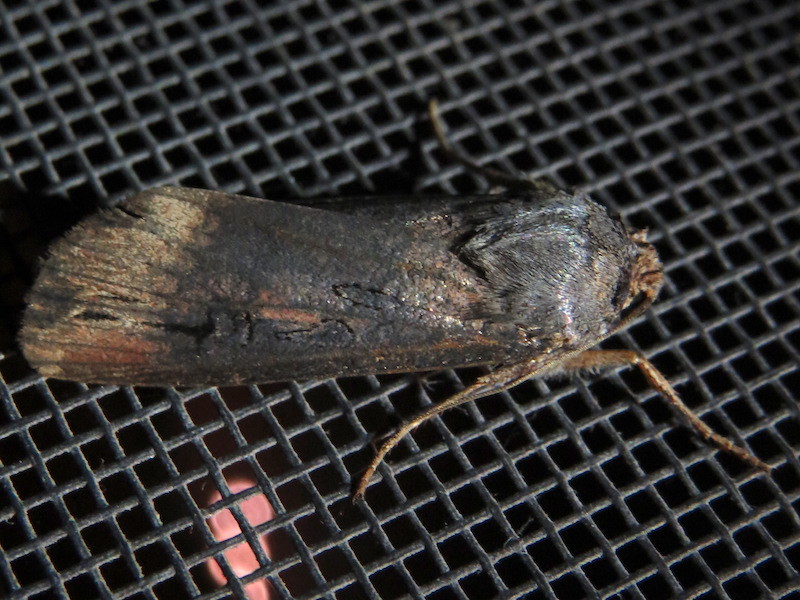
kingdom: Animalia
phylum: Arthropoda
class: Insecta
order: Lepidoptera
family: Noctuidae
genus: Agrotis
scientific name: Agrotis ipsilon
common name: Dark sword-grass
